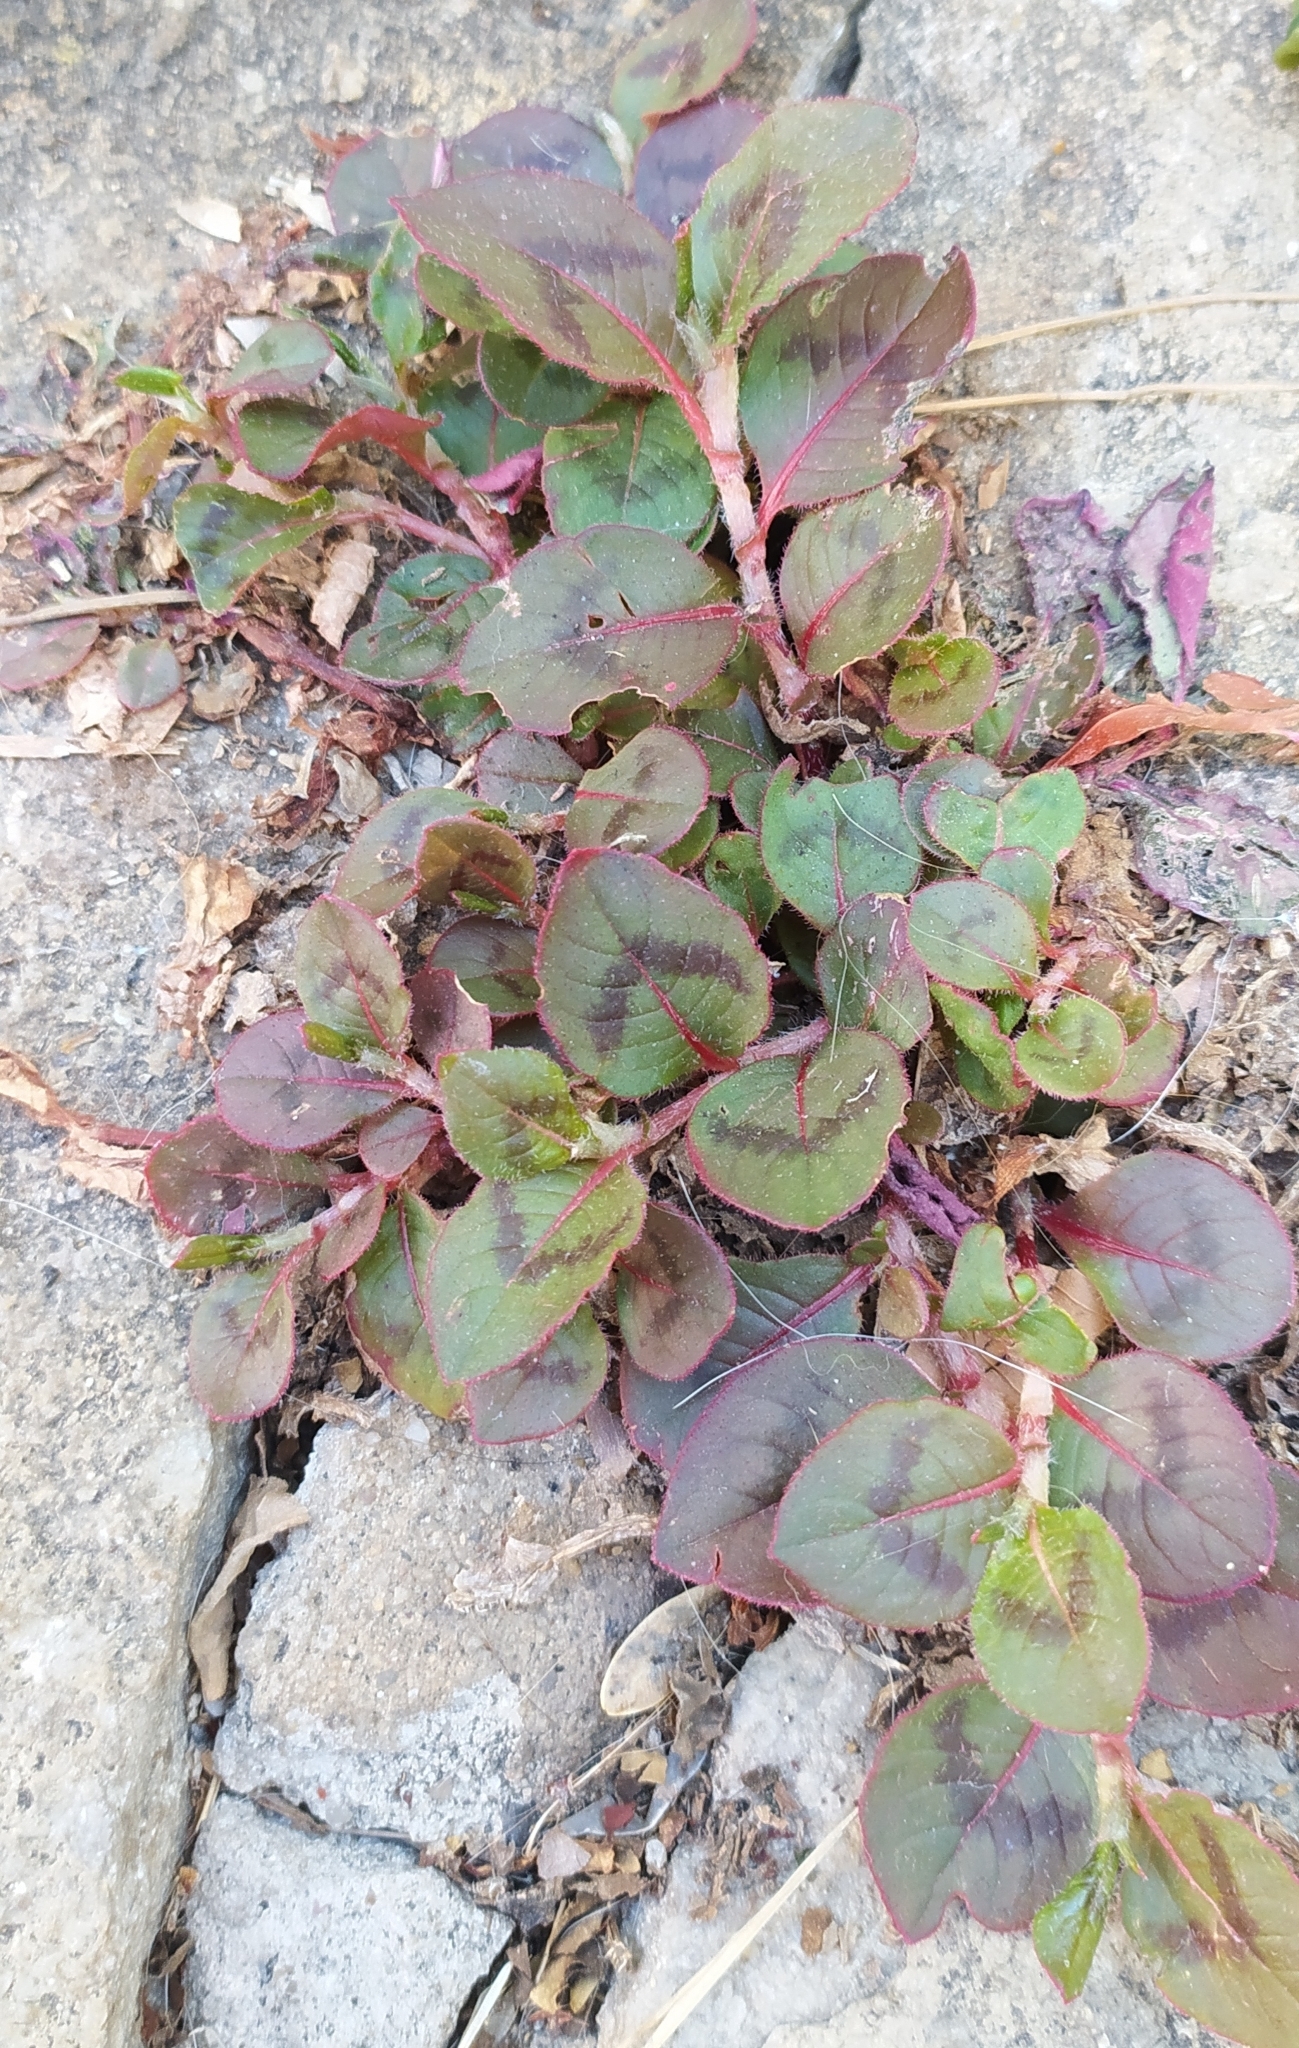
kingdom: Plantae
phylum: Tracheophyta
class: Magnoliopsida
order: Caryophyllales
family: Polygonaceae
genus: Persicaria
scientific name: Persicaria capitata
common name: Pinkhead smartweed
